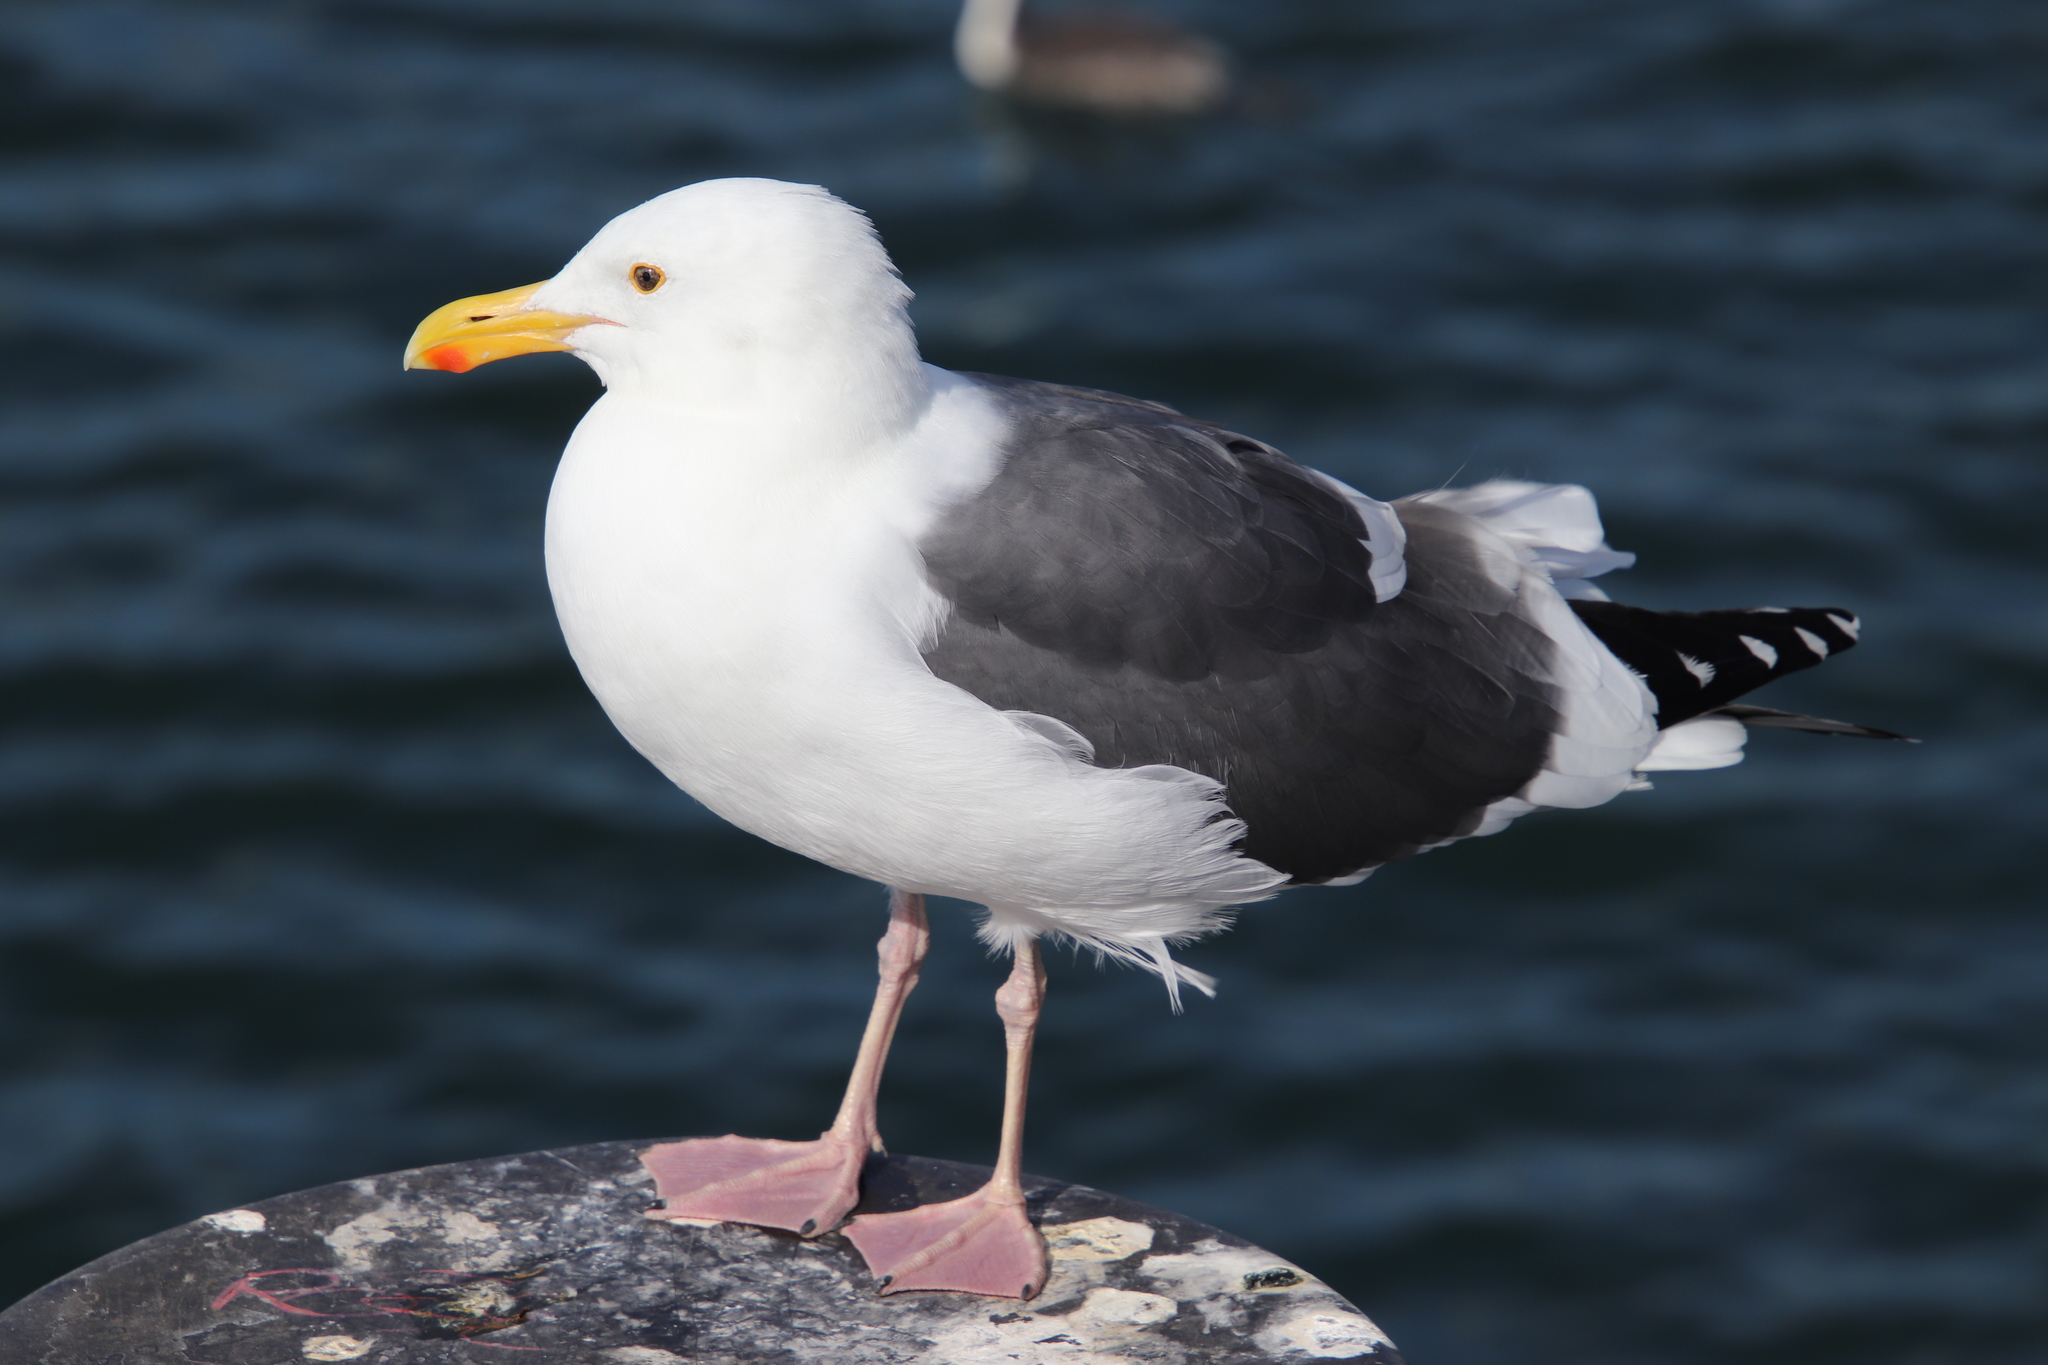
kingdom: Animalia
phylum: Chordata
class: Aves
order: Charadriiformes
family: Laridae
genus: Larus
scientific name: Larus occidentalis
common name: Western gull
